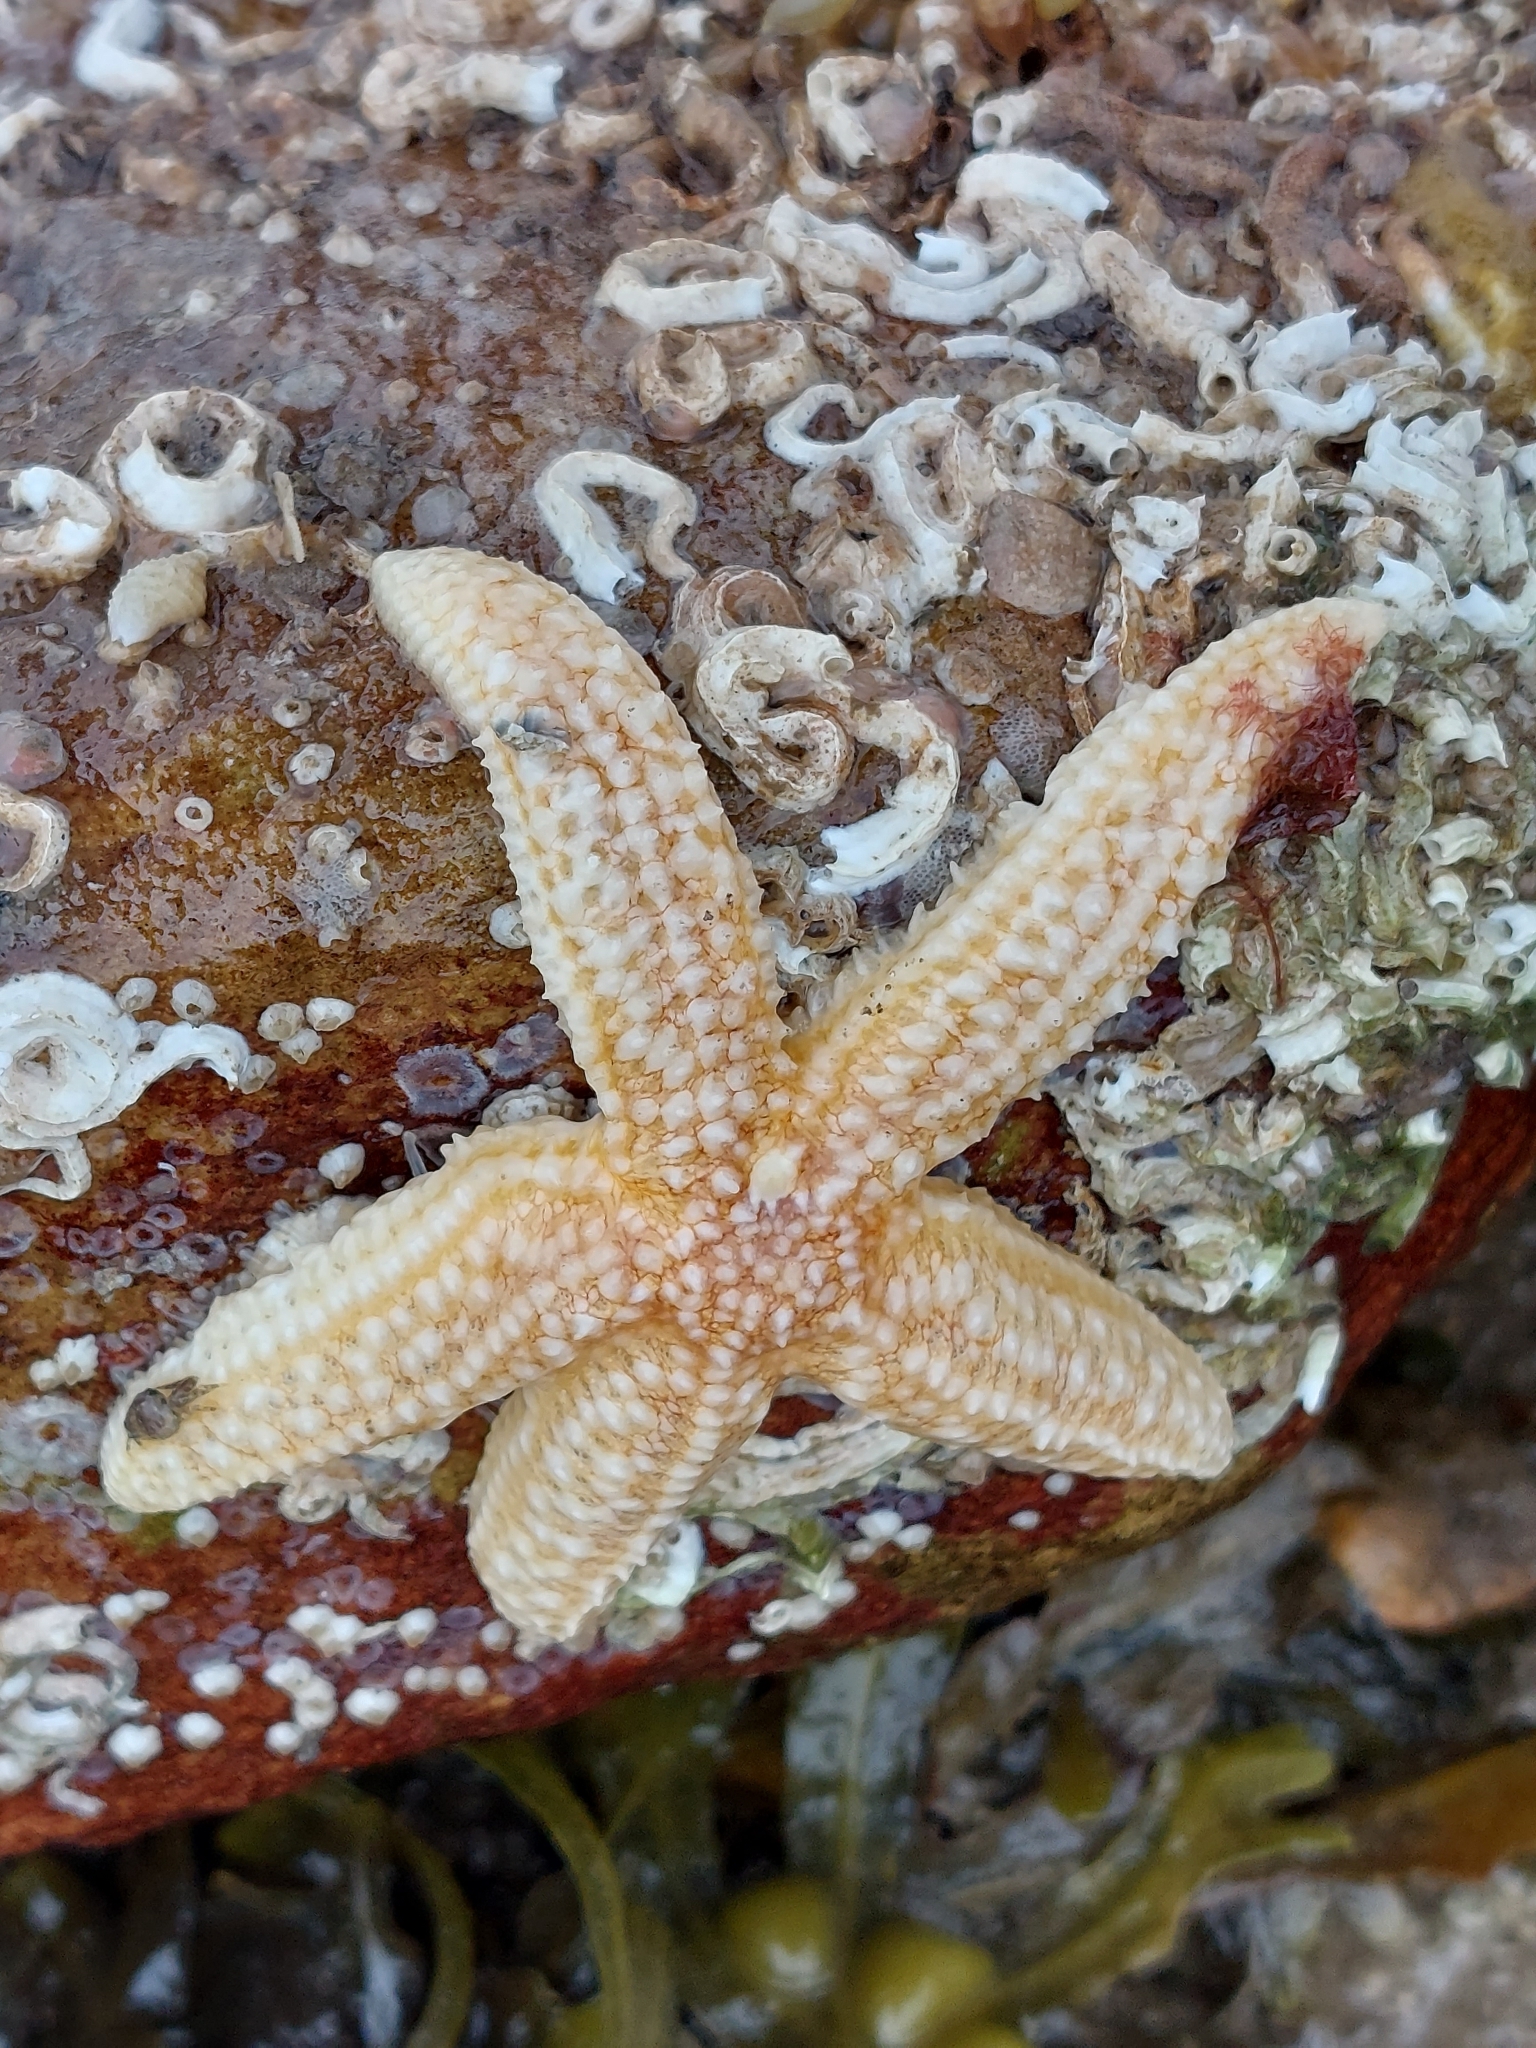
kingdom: Animalia
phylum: Echinodermata
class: Asteroidea
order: Forcipulatida
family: Asteriidae
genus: Asterias
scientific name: Asterias rubens
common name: Common starfish
